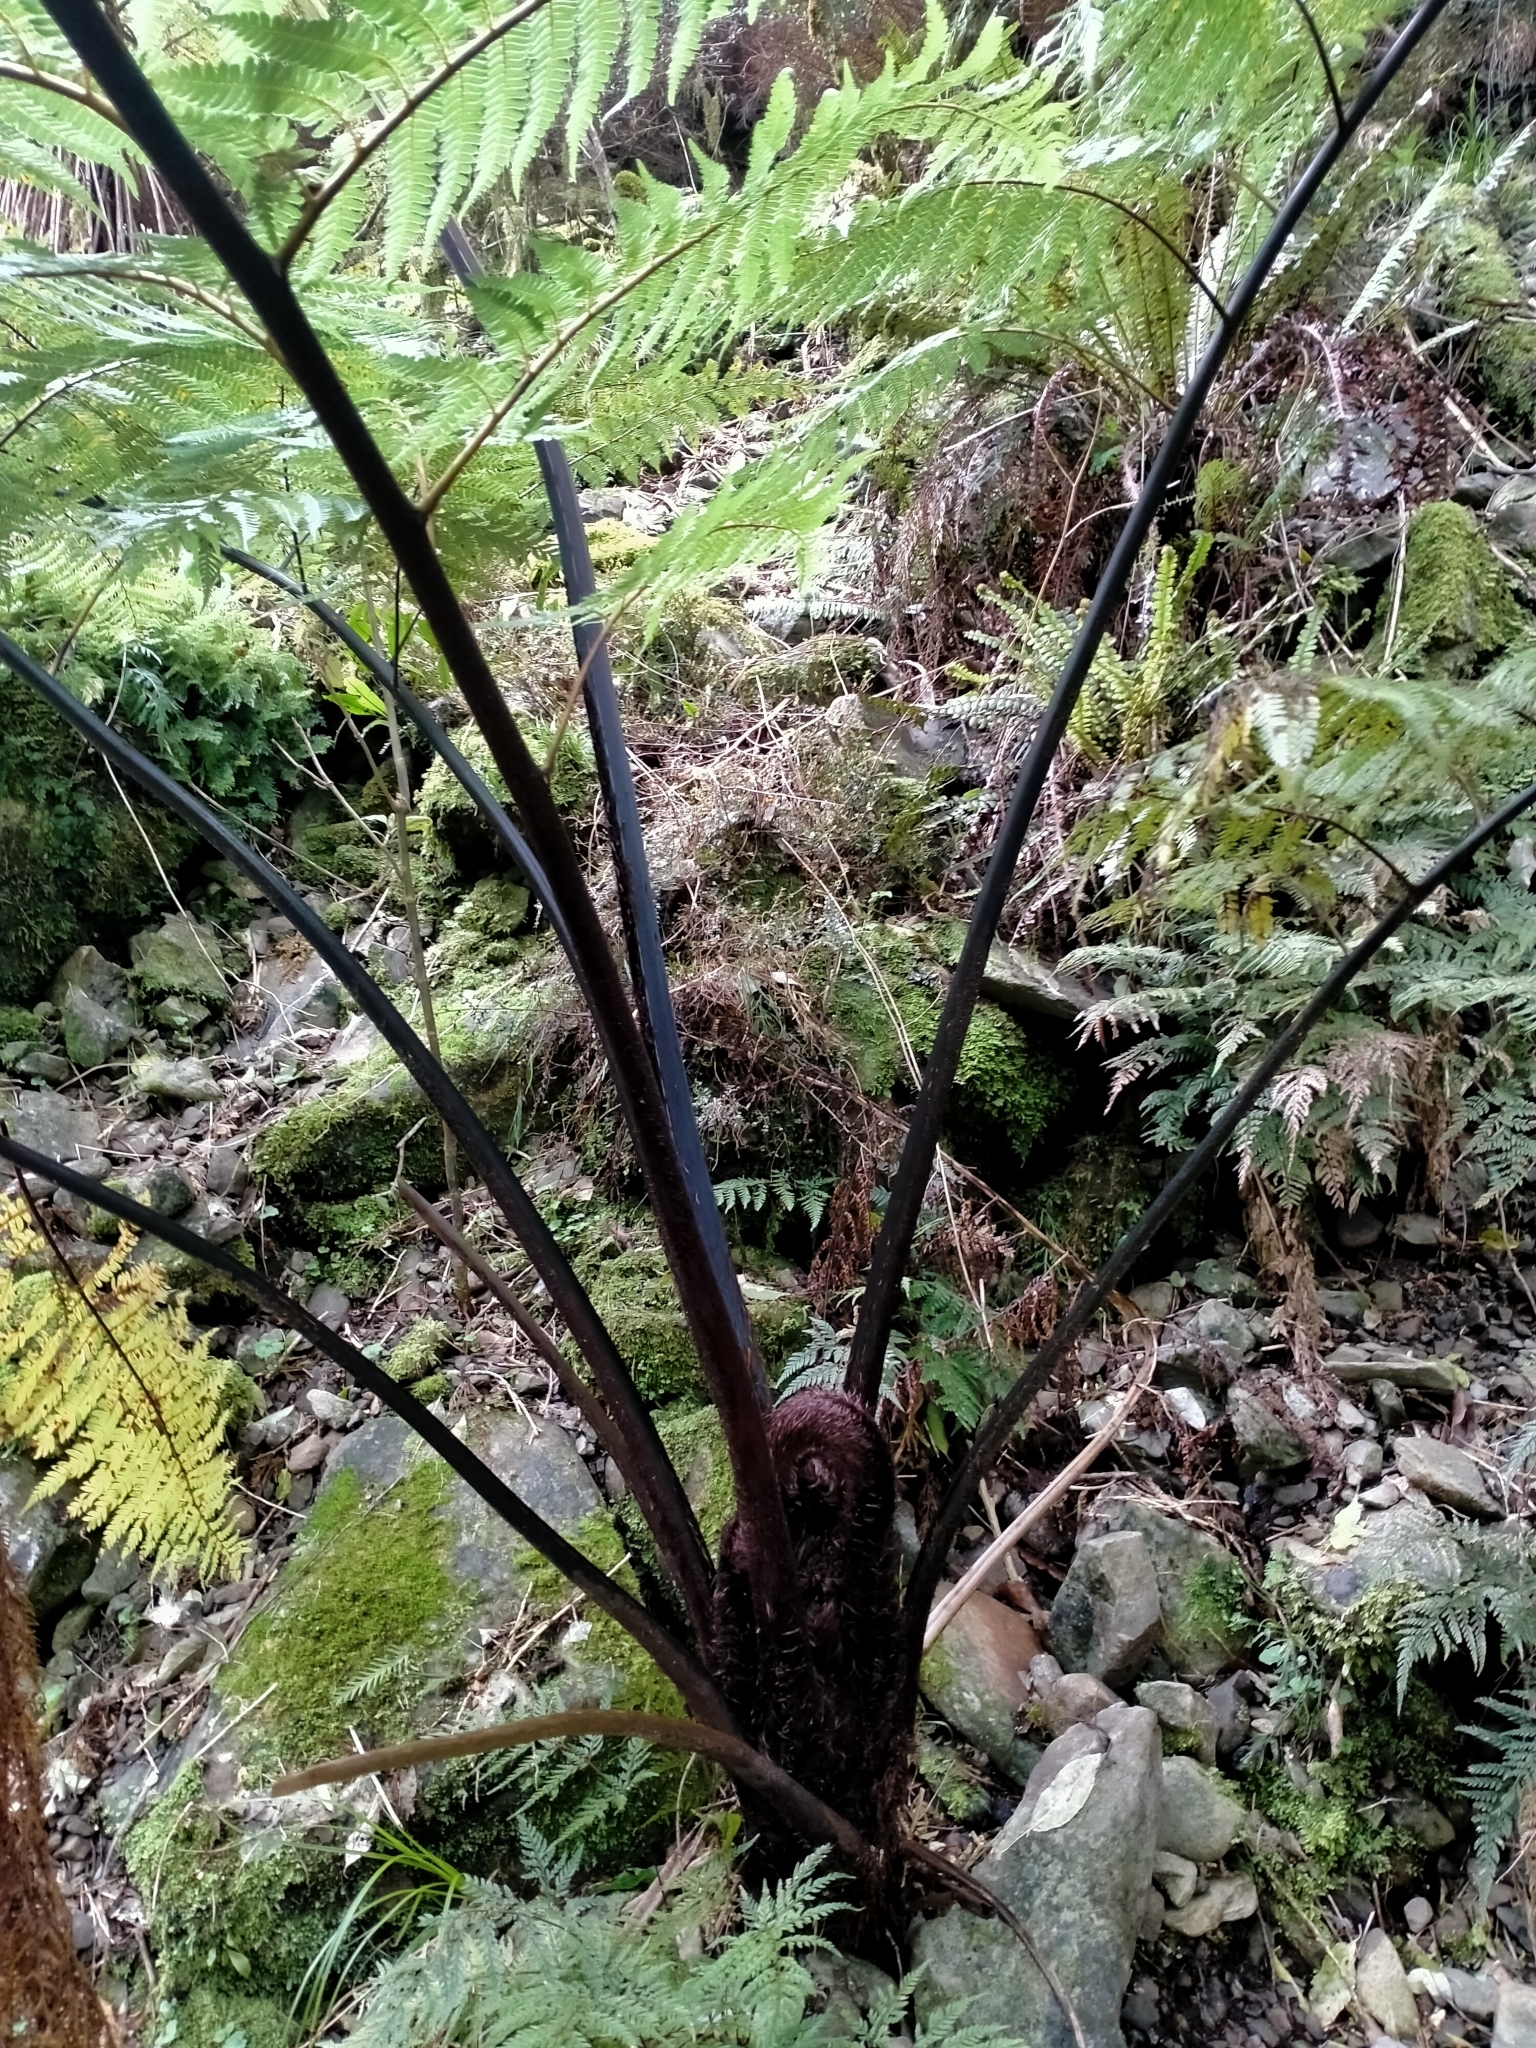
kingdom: Plantae
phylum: Tracheophyta
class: Polypodiopsida
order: Cyatheales
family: Cyatheaceae
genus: Sphaeropteris
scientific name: Sphaeropteris medullaris
